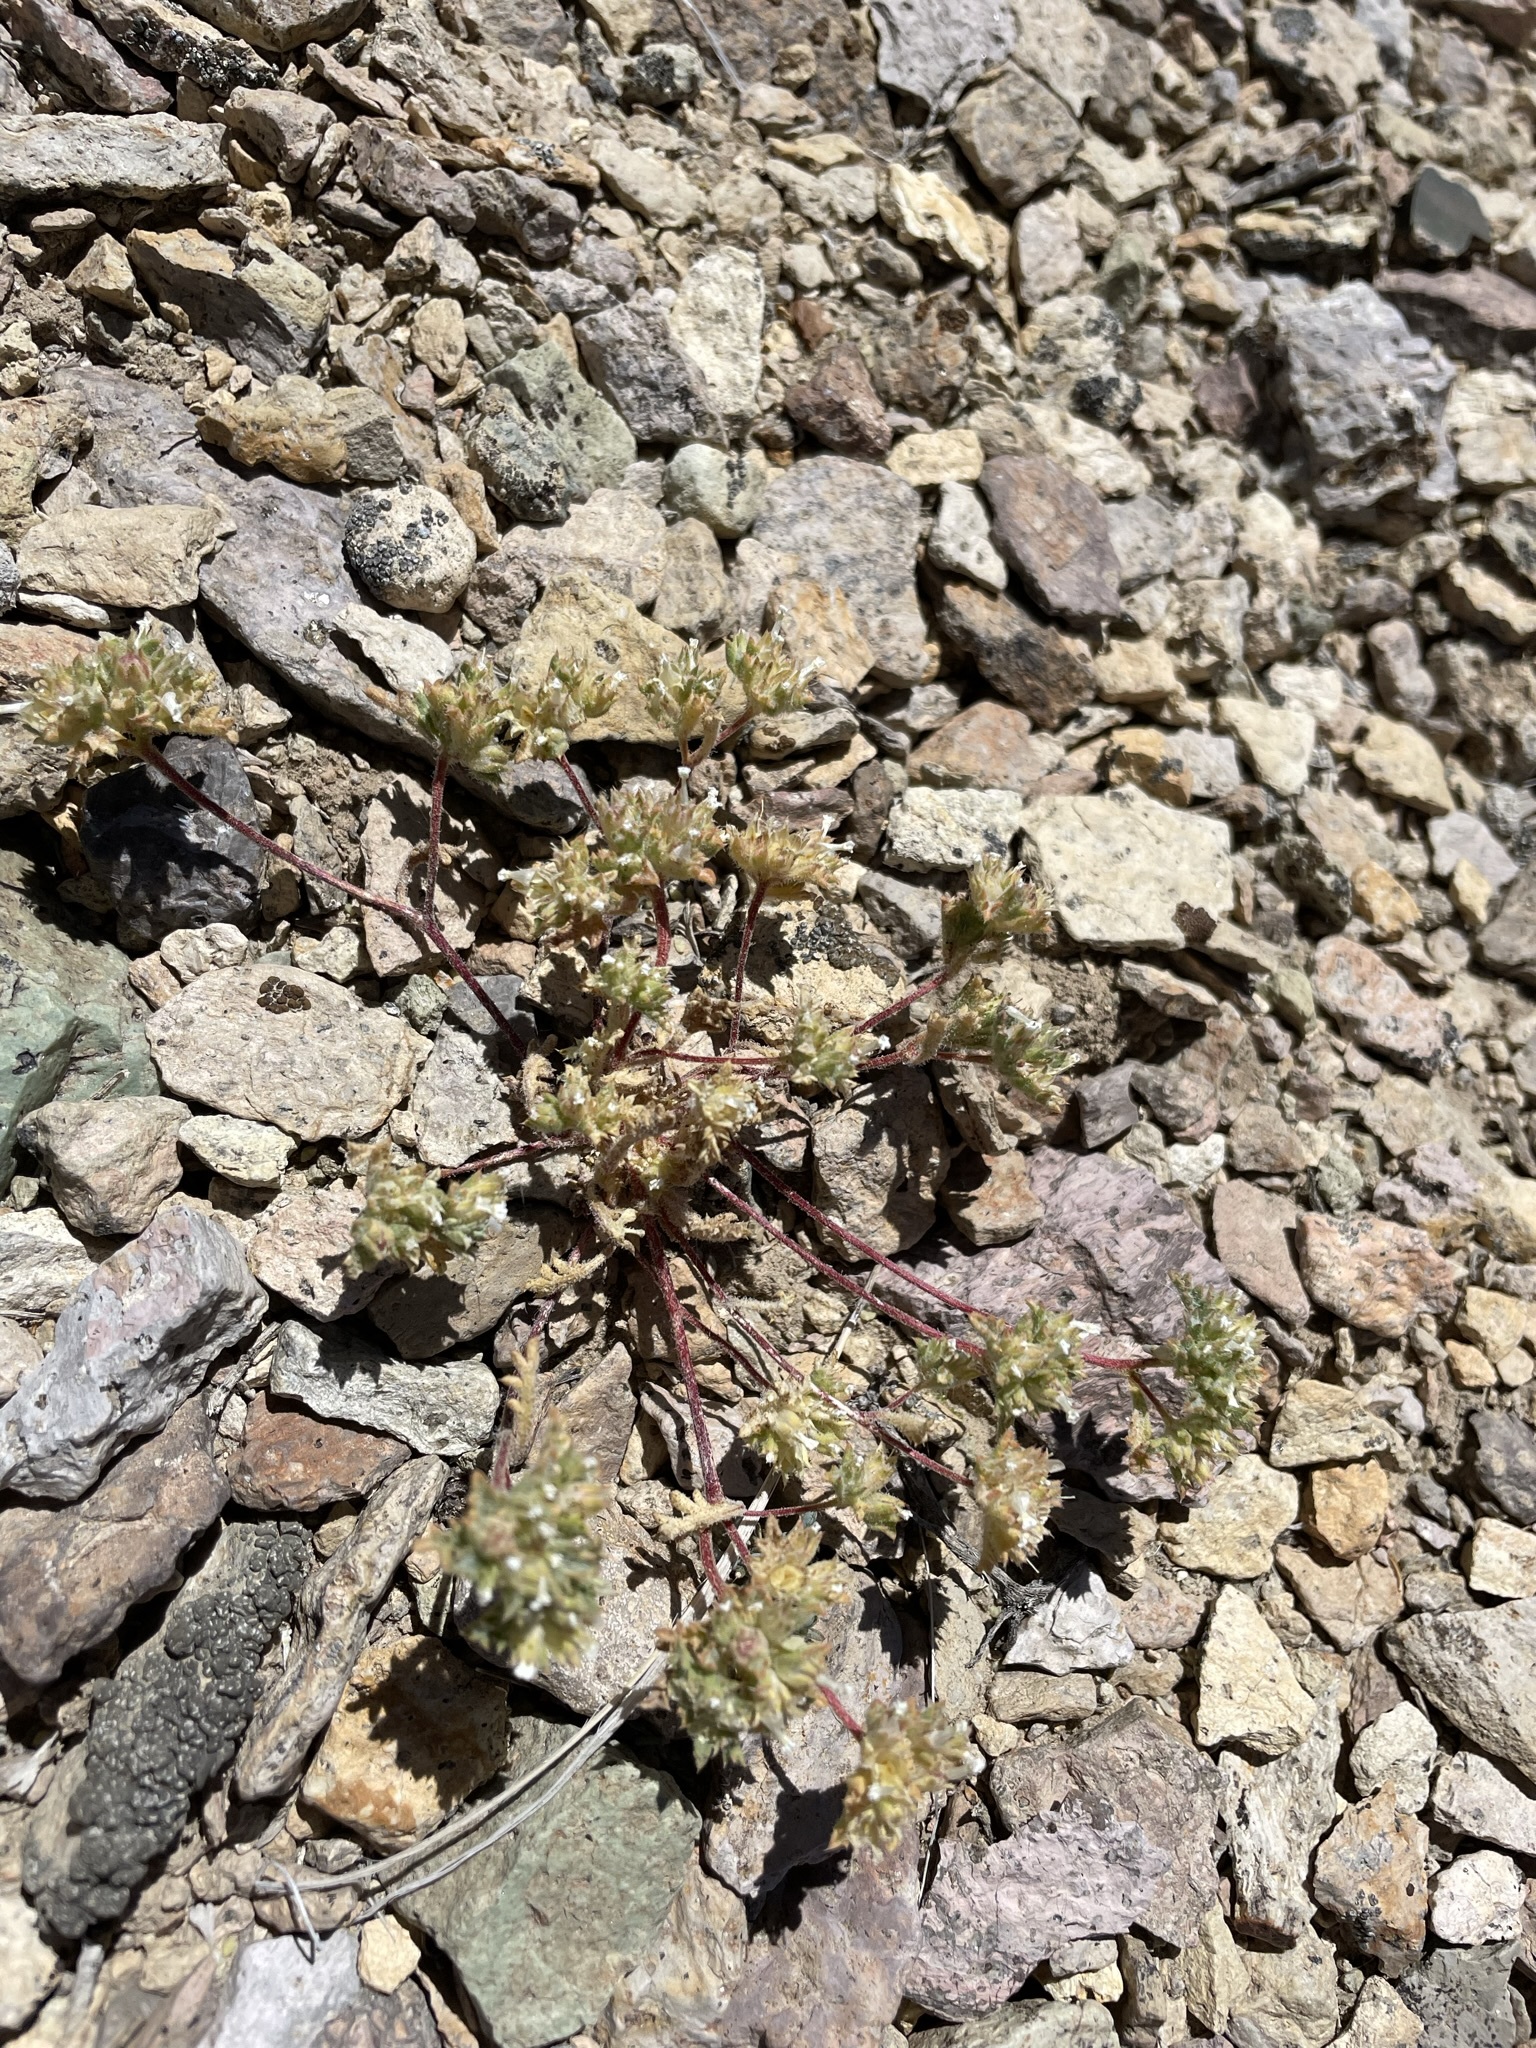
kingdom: Plantae
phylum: Tracheophyta
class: Magnoliopsida
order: Ericales
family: Polemoniaceae
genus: Ipomopsis
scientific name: Ipomopsis polycladon
